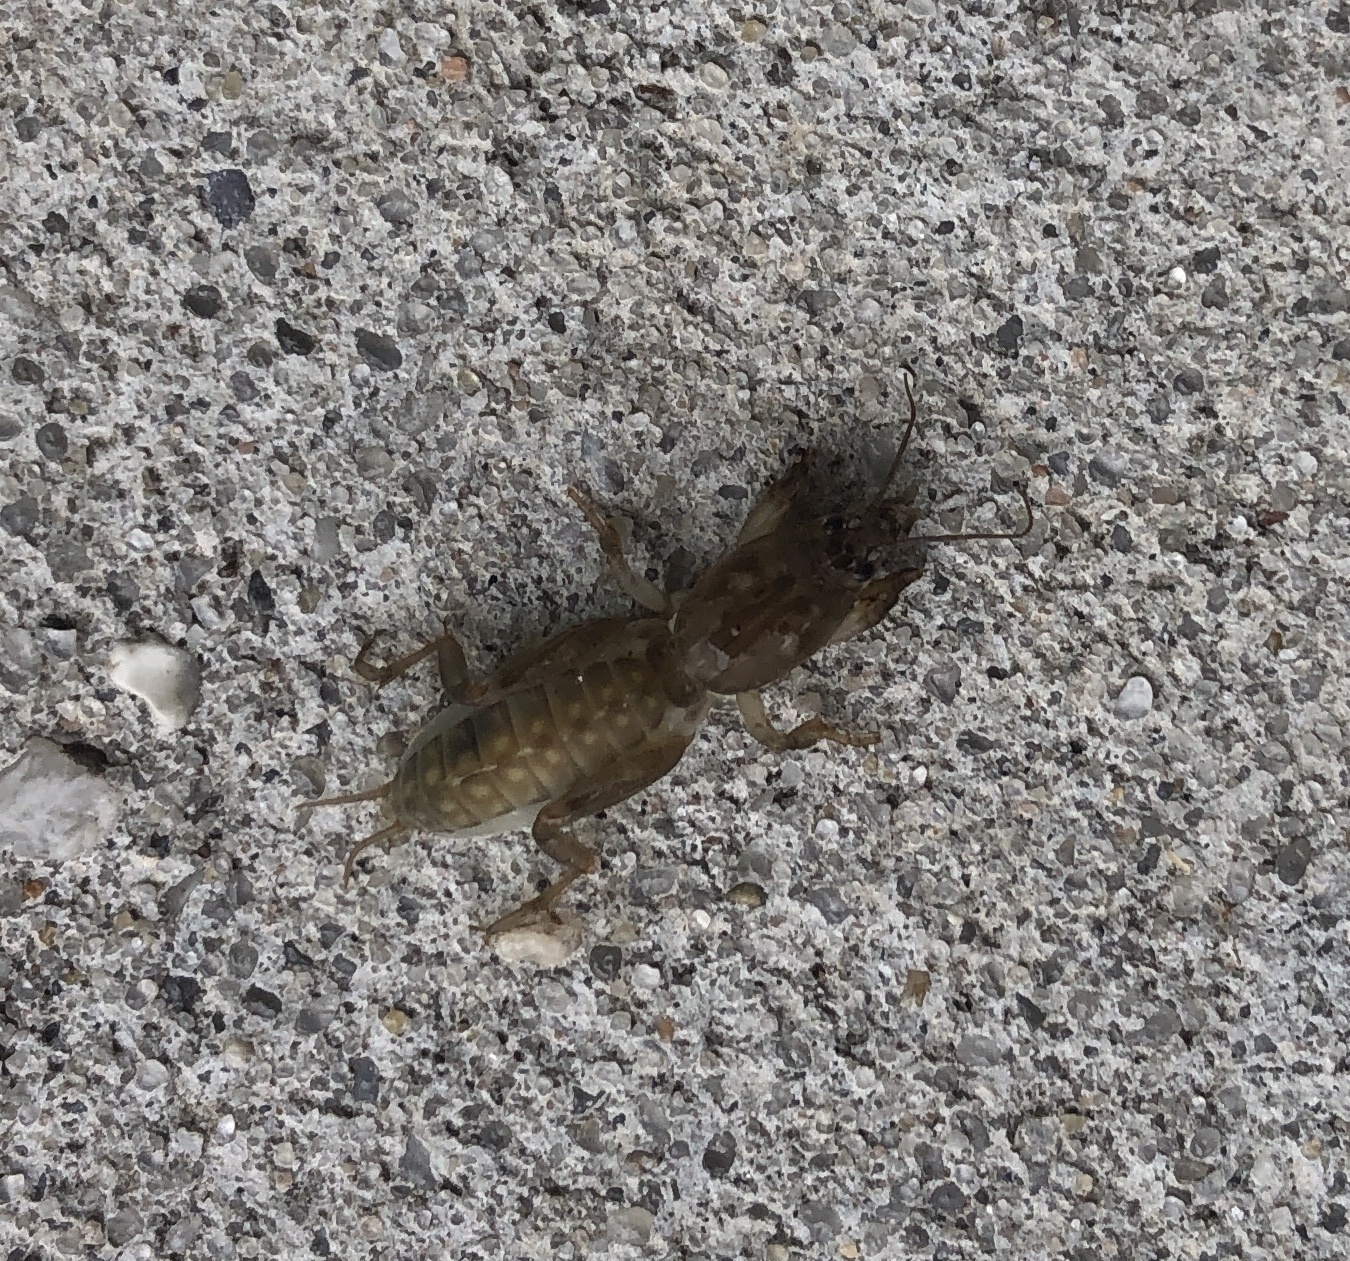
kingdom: Animalia
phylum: Arthropoda
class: Insecta
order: Orthoptera
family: Gryllotalpidae
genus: Neoscapteriscus
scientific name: Neoscapteriscus borellii
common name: Southern mole cricket
